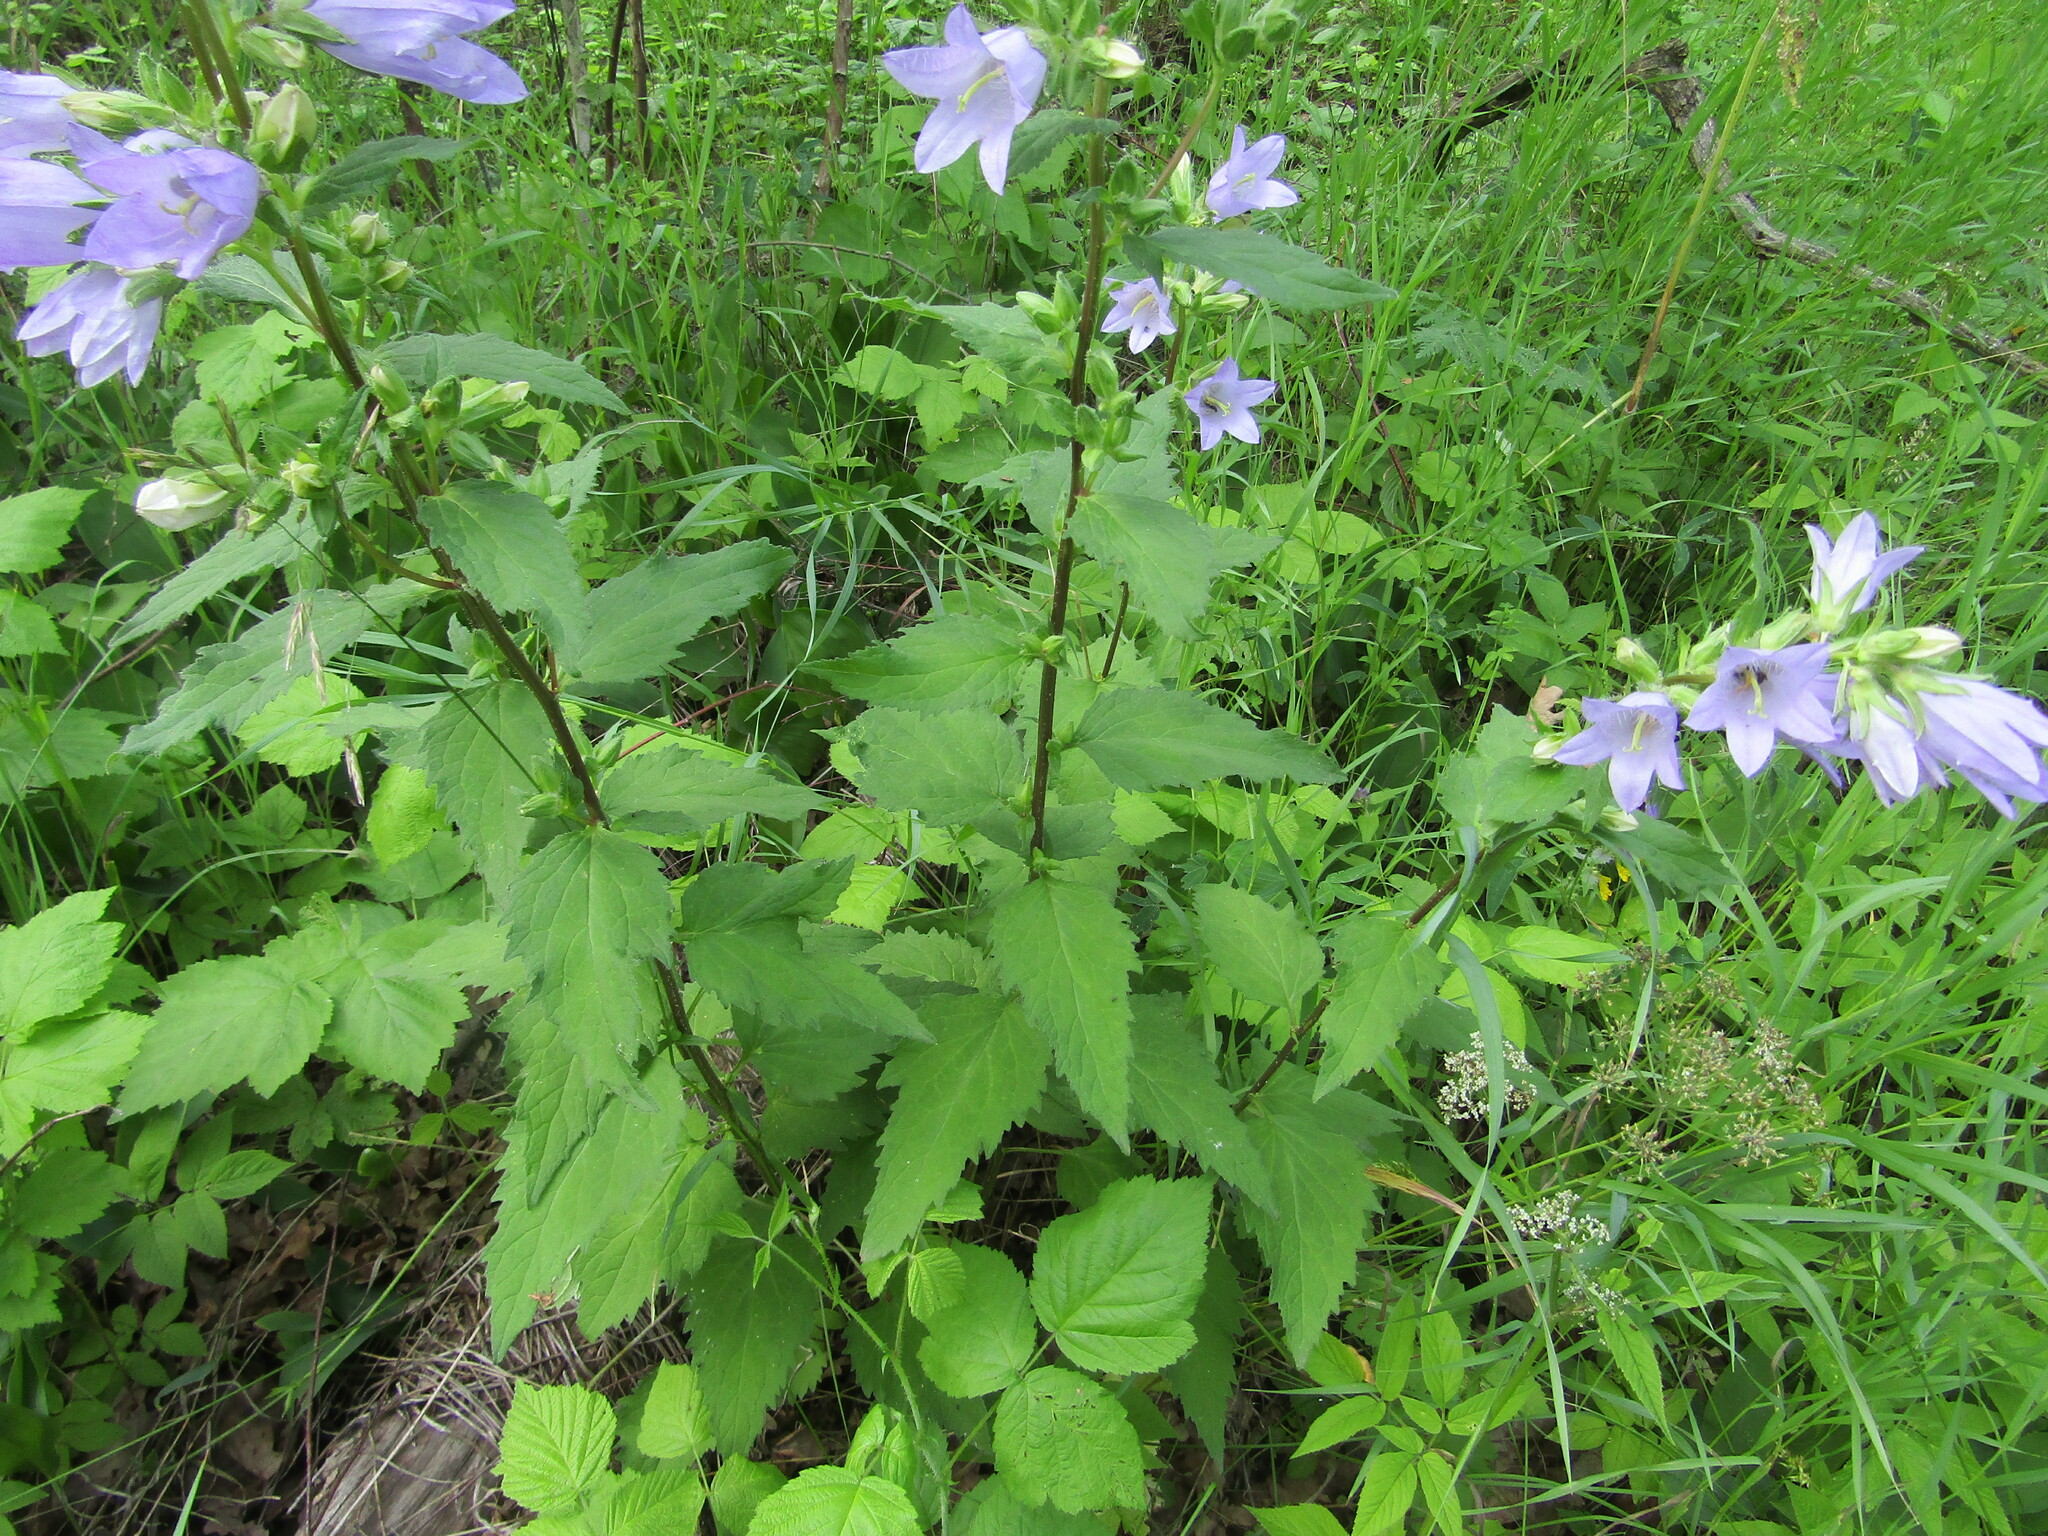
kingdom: Plantae
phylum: Tracheophyta
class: Magnoliopsida
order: Asterales
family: Campanulaceae
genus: Campanula
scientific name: Campanula trachelium
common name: Nettle-leaved bellflower
